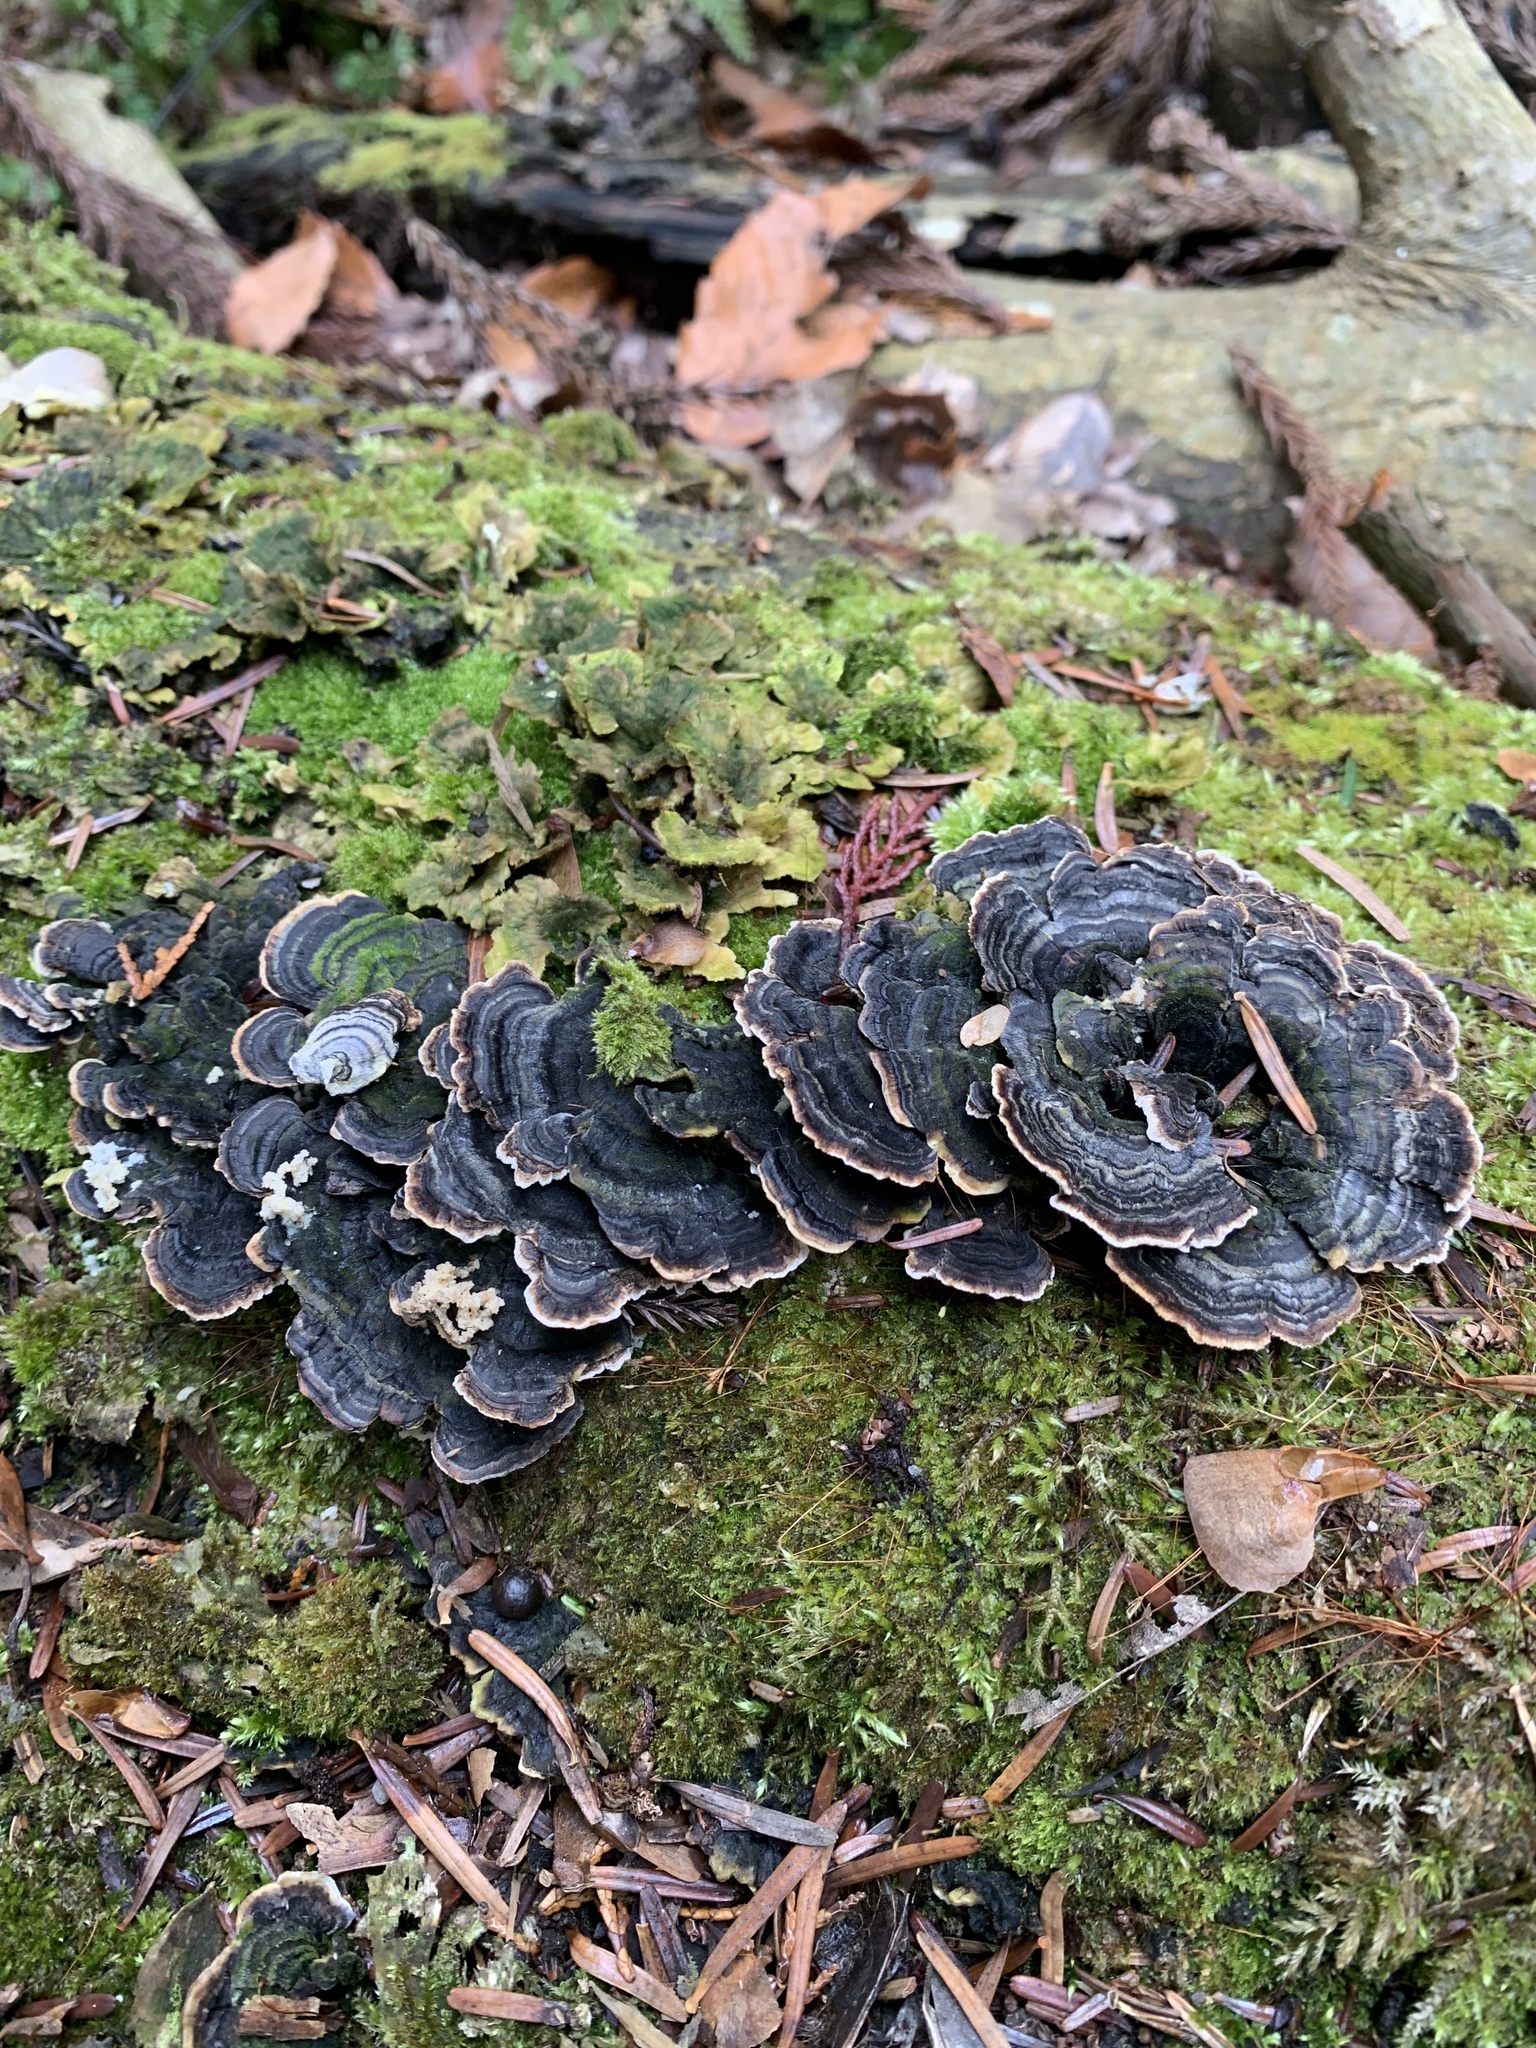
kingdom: Fungi
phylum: Basidiomycota
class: Agaricomycetes
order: Polyporales
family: Polyporaceae
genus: Trametes
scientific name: Trametes versicolor
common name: Turkeytail
